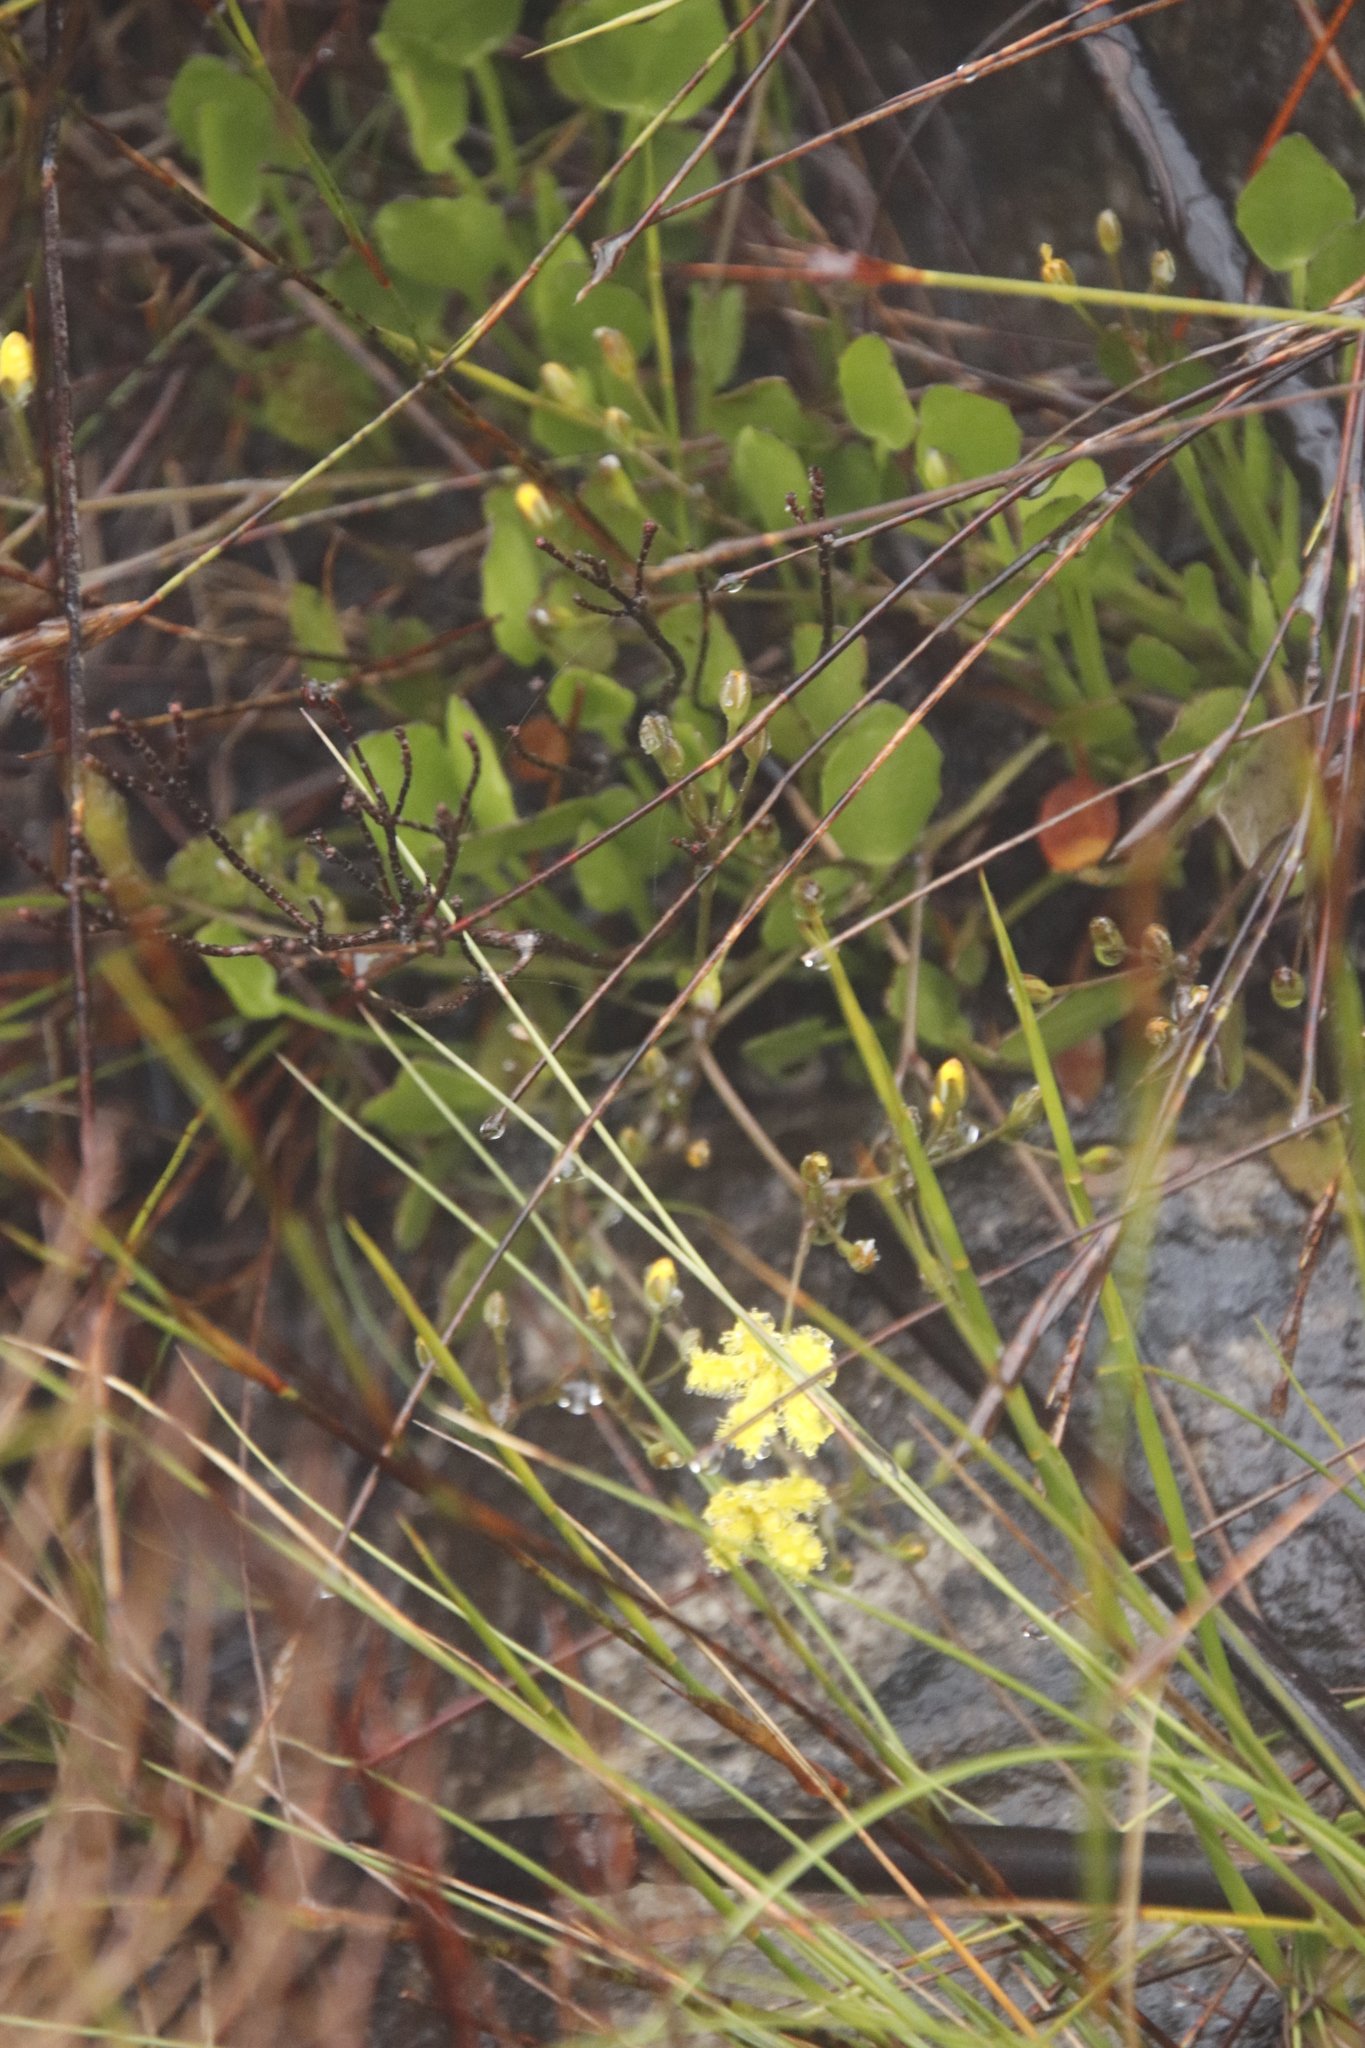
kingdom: Plantae
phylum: Tracheophyta
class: Magnoliopsida
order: Asterales
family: Menyanthaceae
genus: Villarsia
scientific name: Villarsia manningiana
